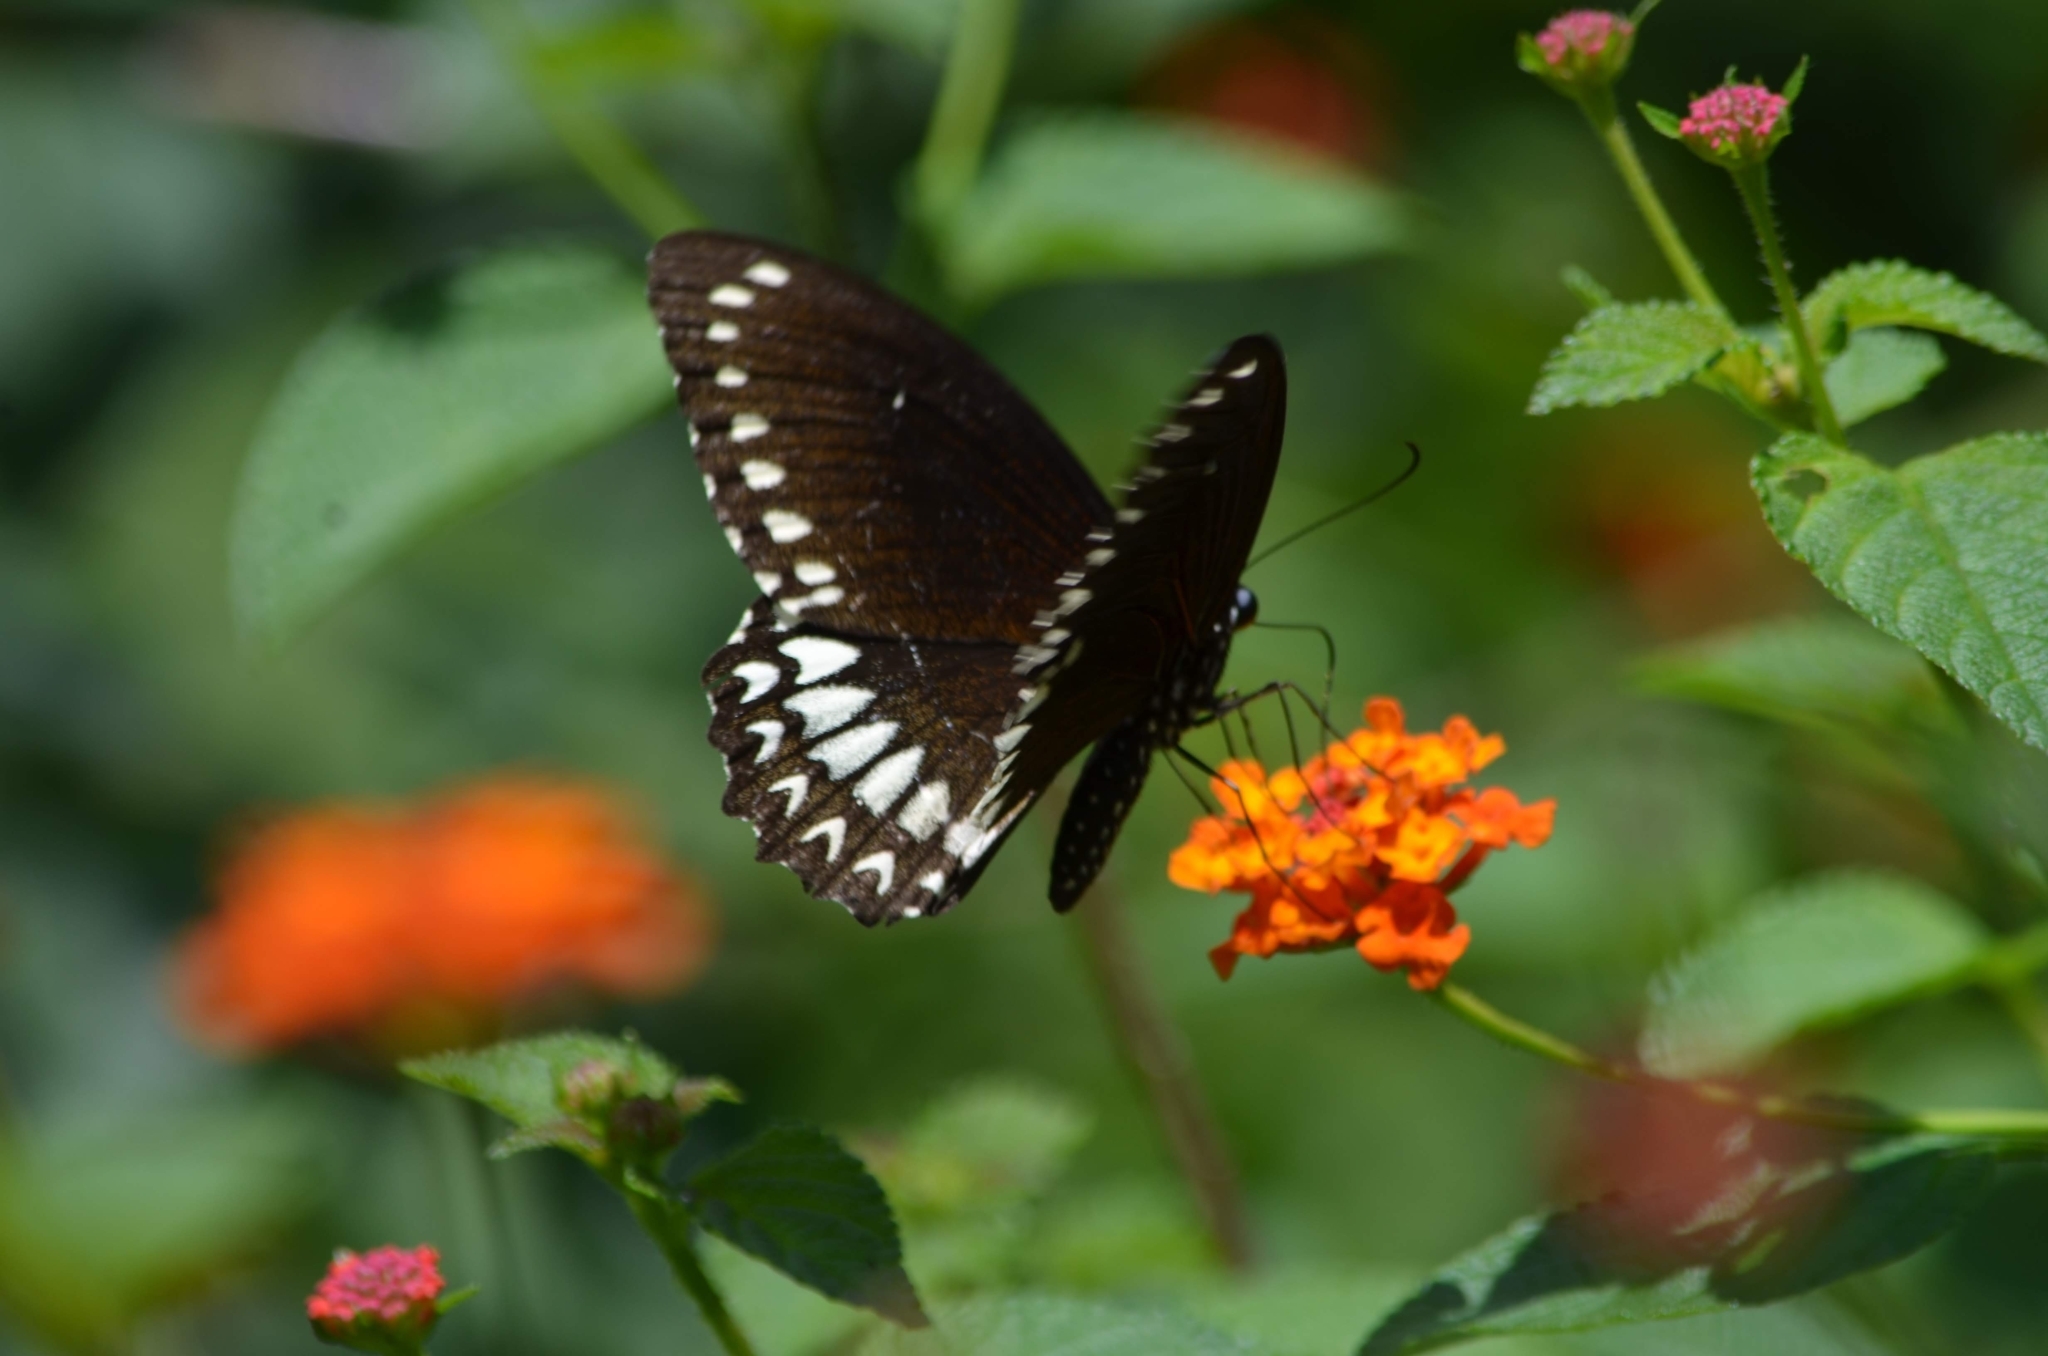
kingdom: Animalia
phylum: Arthropoda
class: Insecta
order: Lepidoptera
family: Papilionidae
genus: Papilio
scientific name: Papilio dravidarum
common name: Malabar raven
